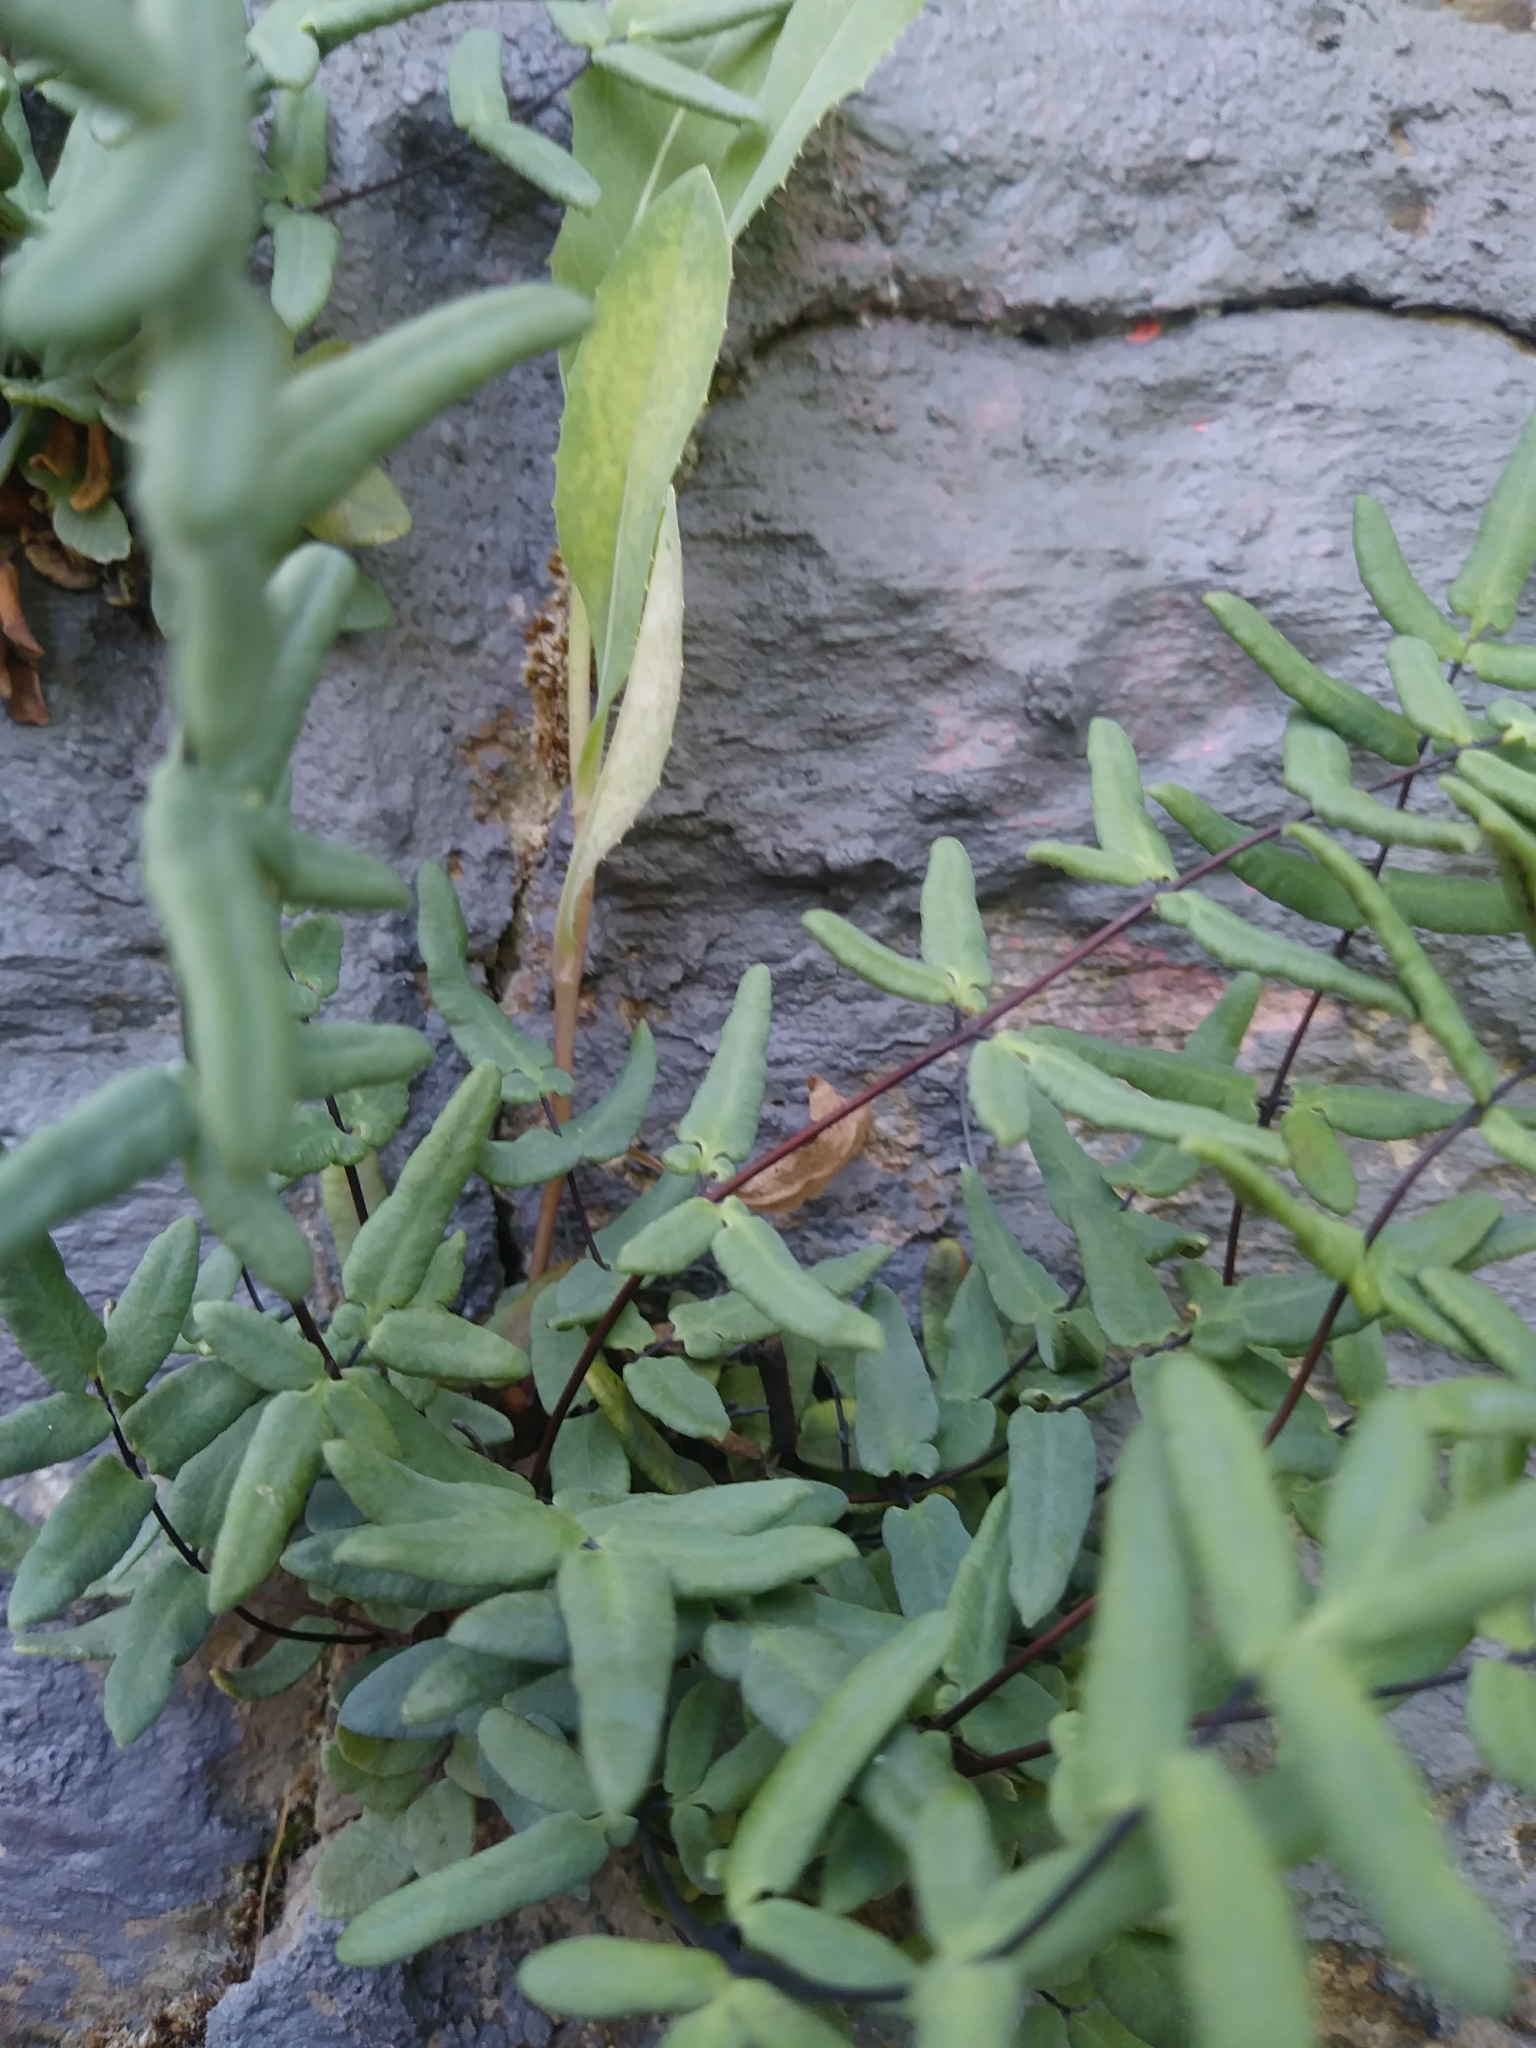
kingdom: Plantae
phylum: Tracheophyta
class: Polypodiopsida
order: Polypodiales
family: Pteridaceae
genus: Pellaea
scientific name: Pellaea glabella
